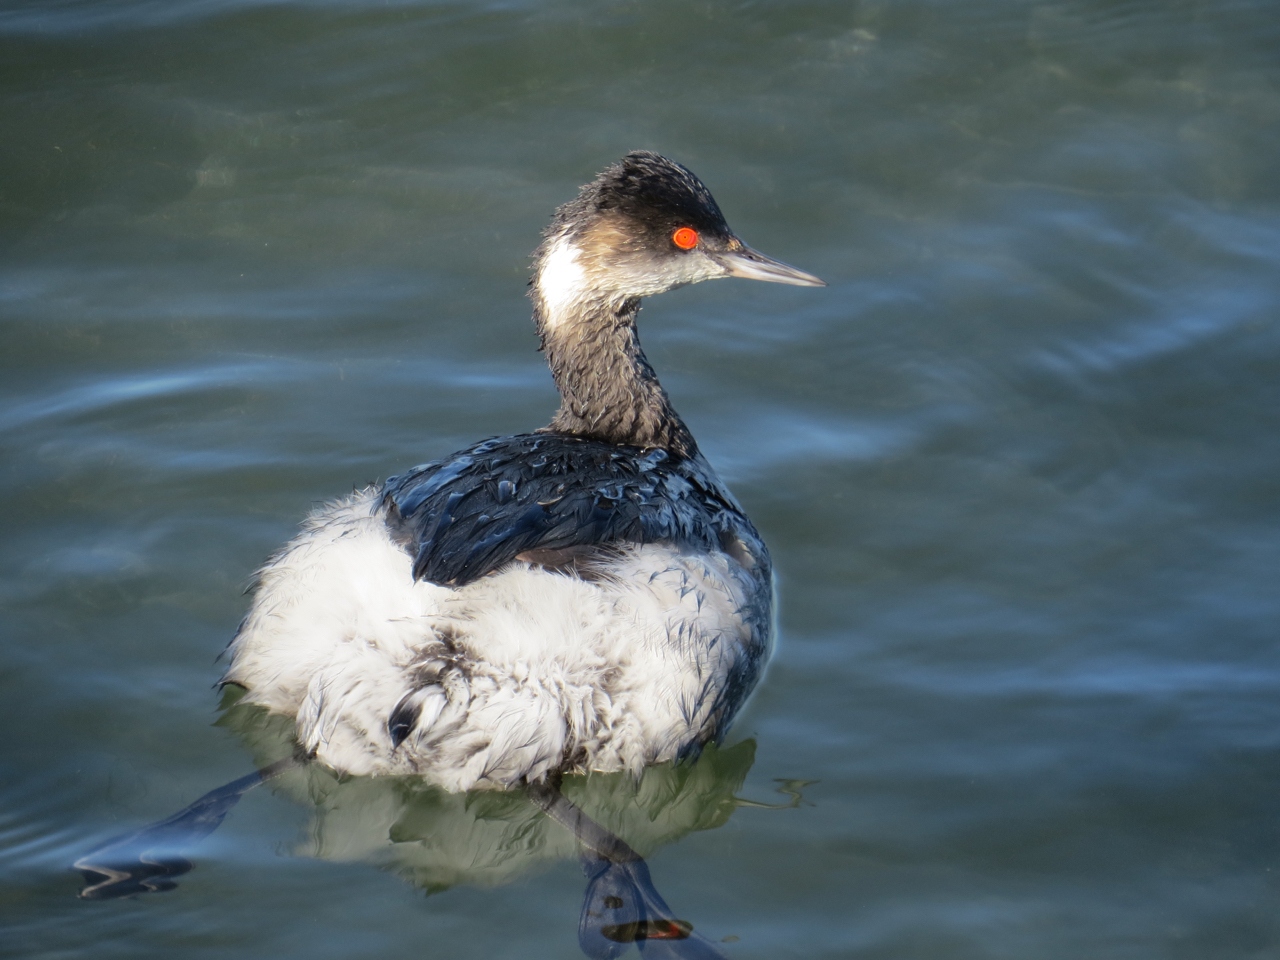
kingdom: Animalia
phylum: Chordata
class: Aves
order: Podicipediformes
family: Podicipedidae
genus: Podiceps
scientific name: Podiceps nigricollis
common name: Black-necked grebe
